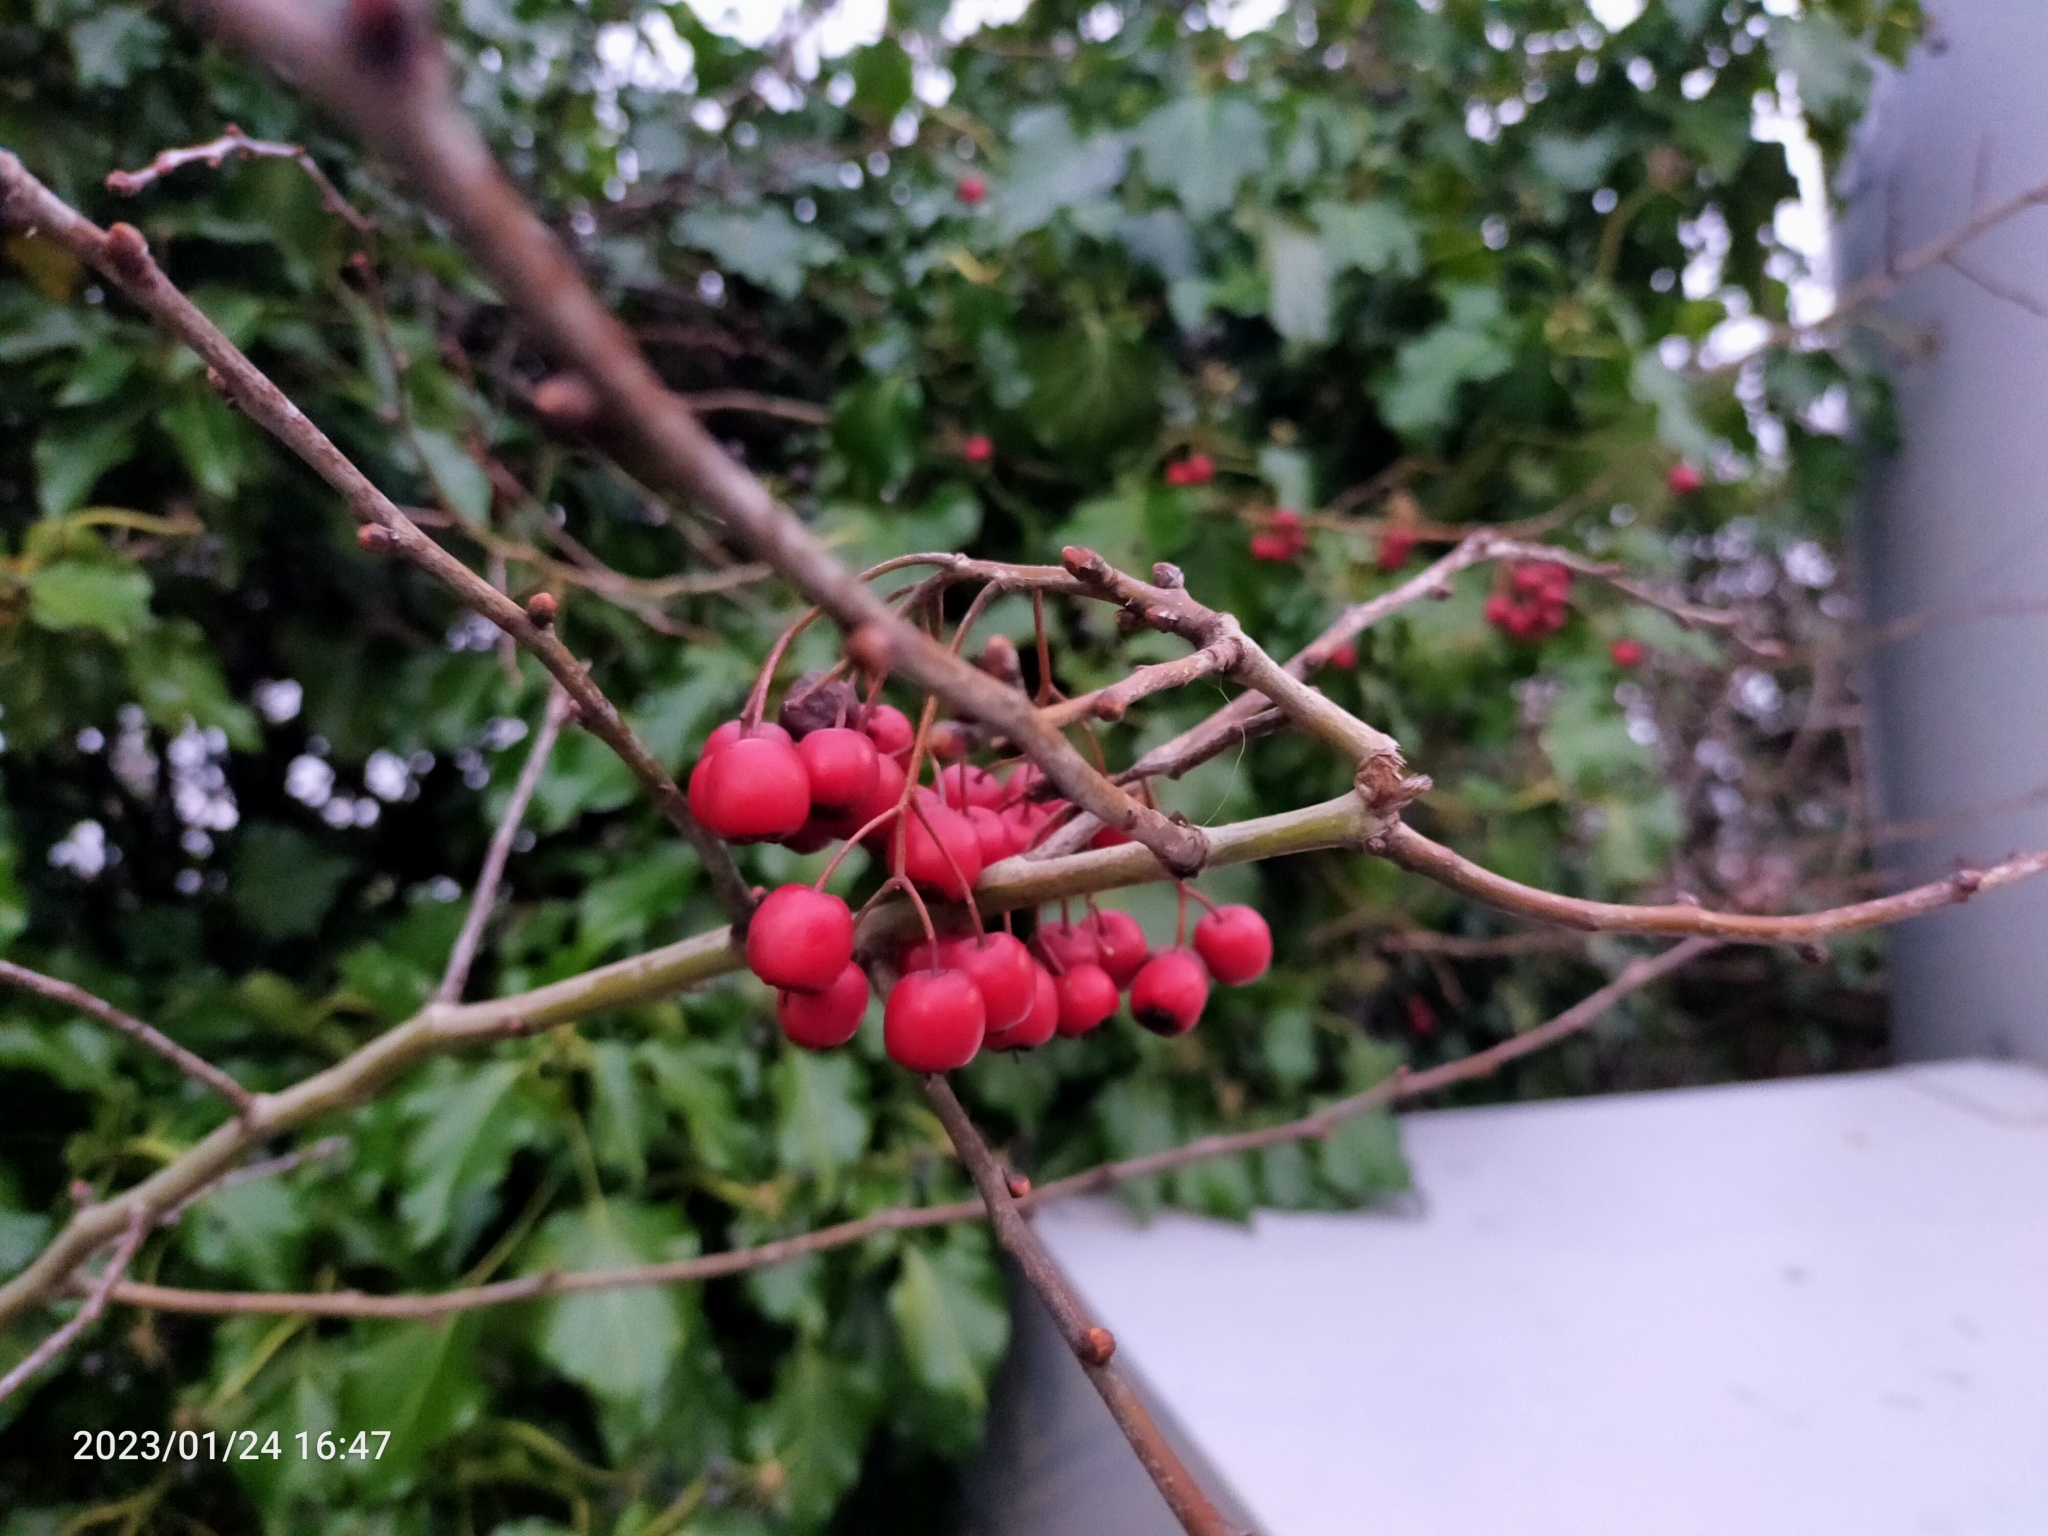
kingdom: Plantae
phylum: Tracheophyta
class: Magnoliopsida
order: Rosales
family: Rosaceae
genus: Sorbus
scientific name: Sorbus aucuparia
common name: Rowan
